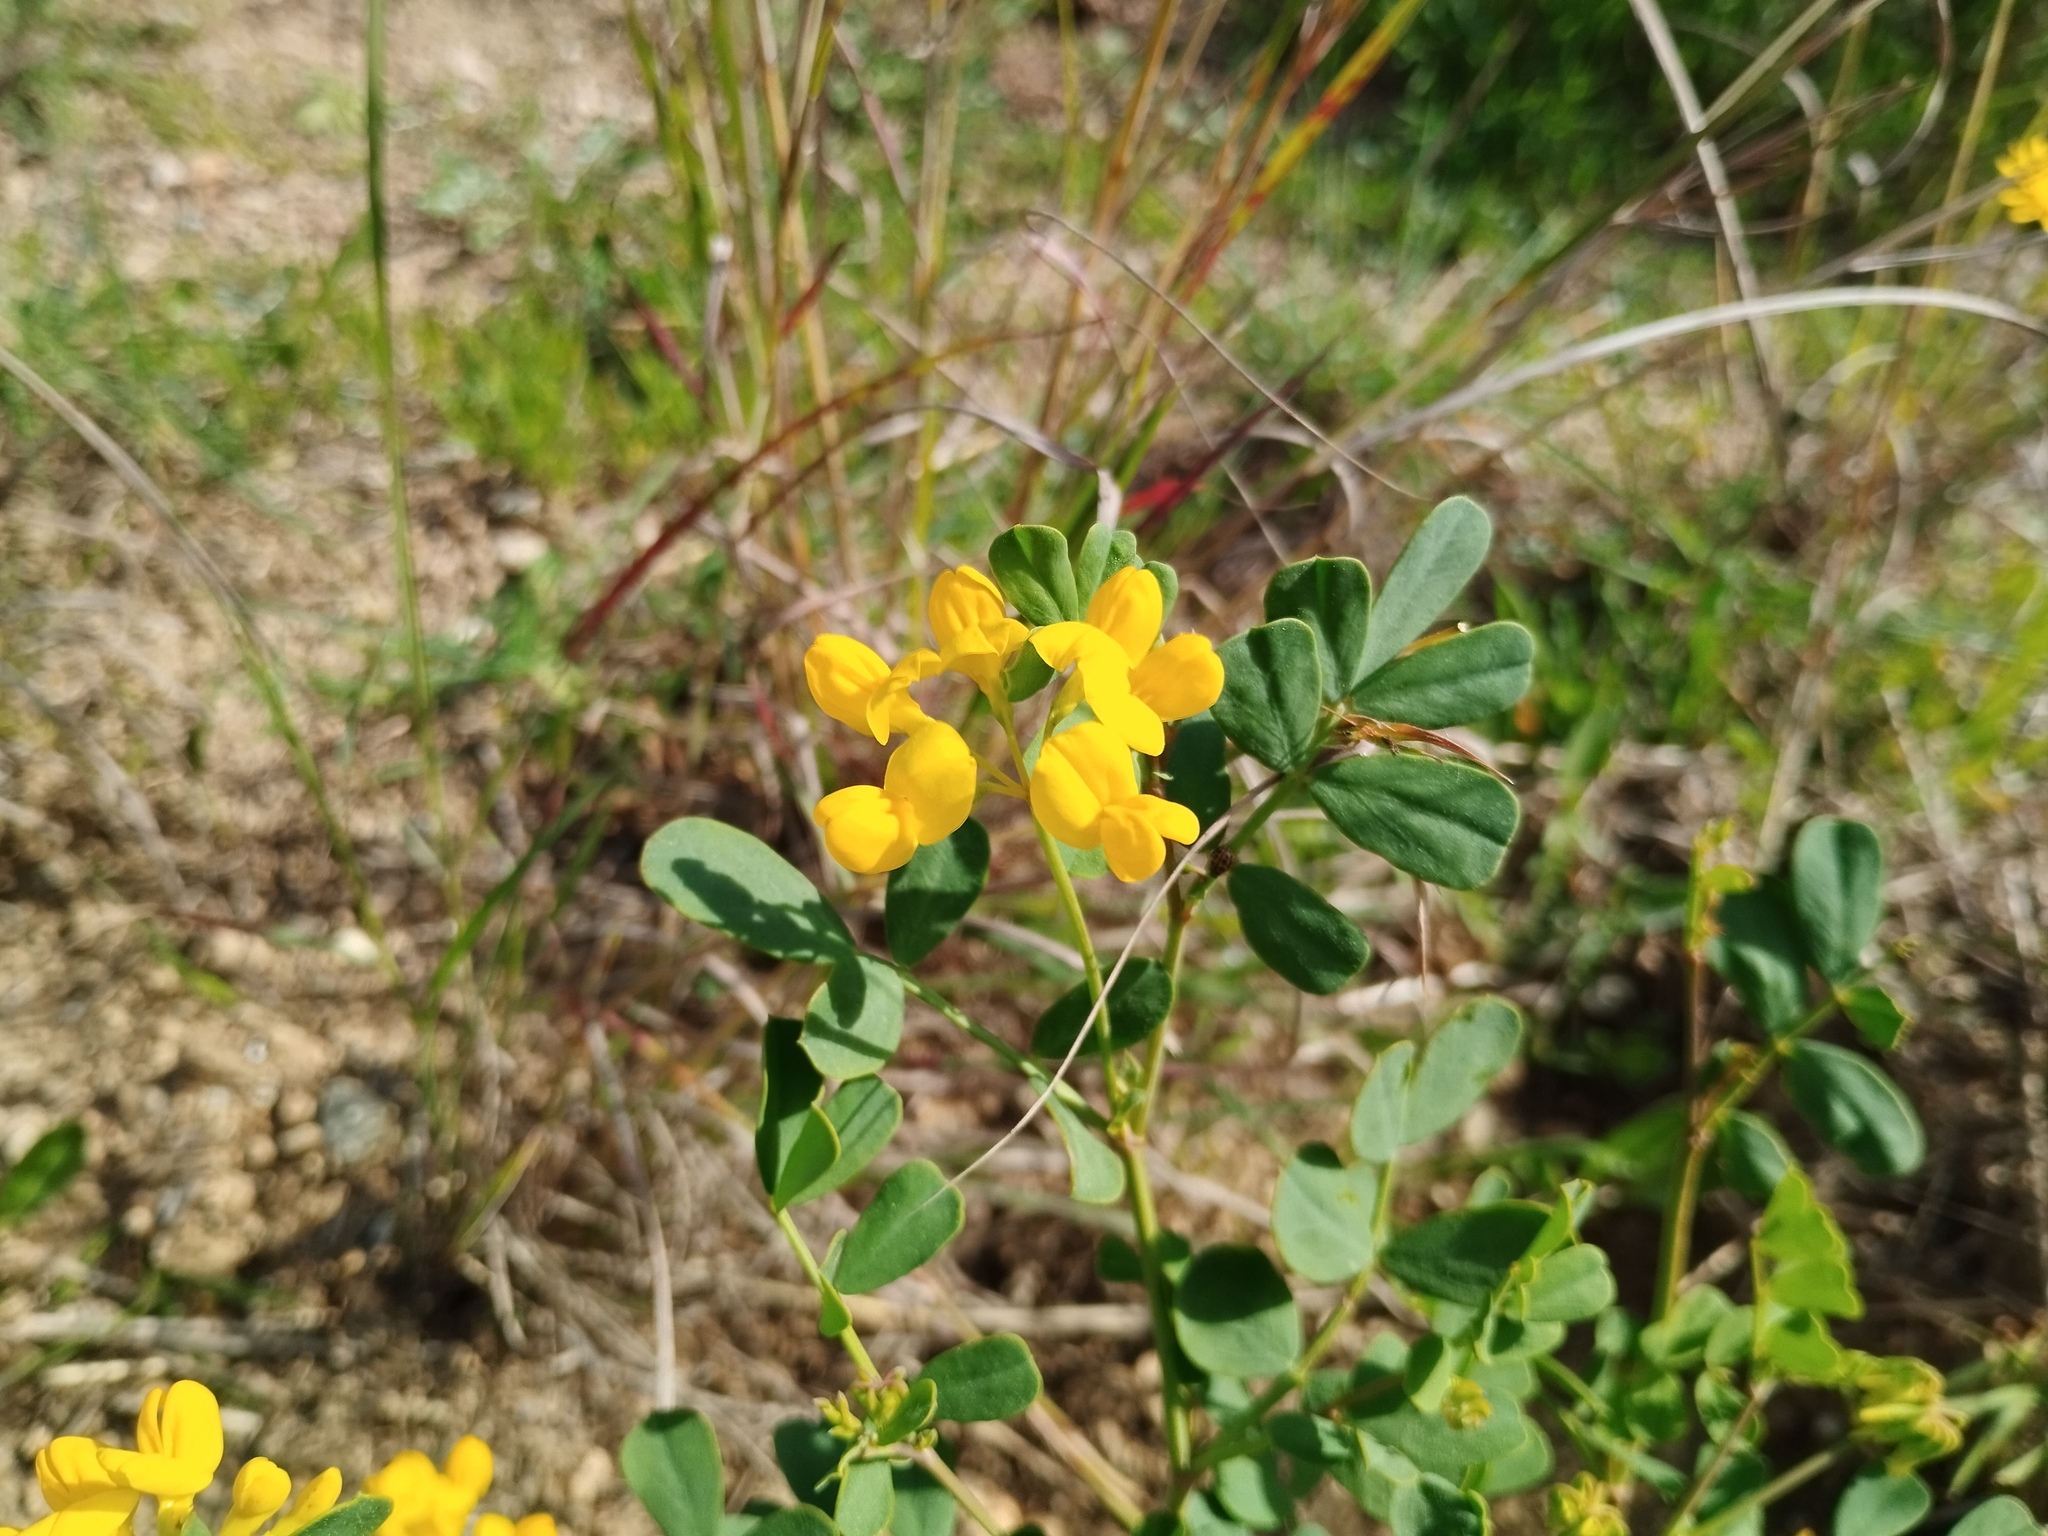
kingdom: Plantae
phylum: Tracheophyta
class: Magnoliopsida
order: Fabales
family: Fabaceae
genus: Coronilla
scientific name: Coronilla valentina
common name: Shrubby scorpion-vetch
